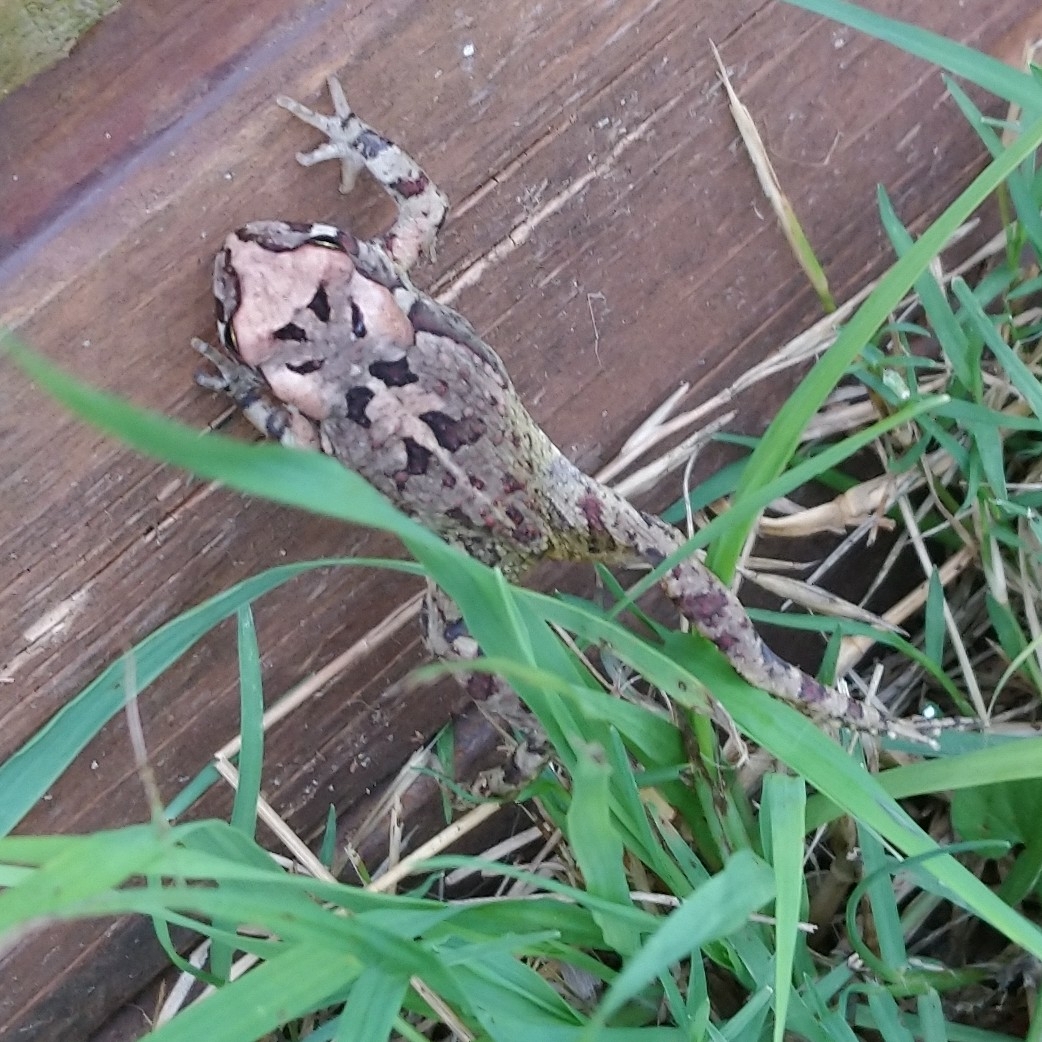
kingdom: Animalia
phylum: Chordata
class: Amphibia
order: Anura
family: Bufonidae
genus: Sclerophrys
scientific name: Sclerophrys capensis
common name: Ranger’s toad
